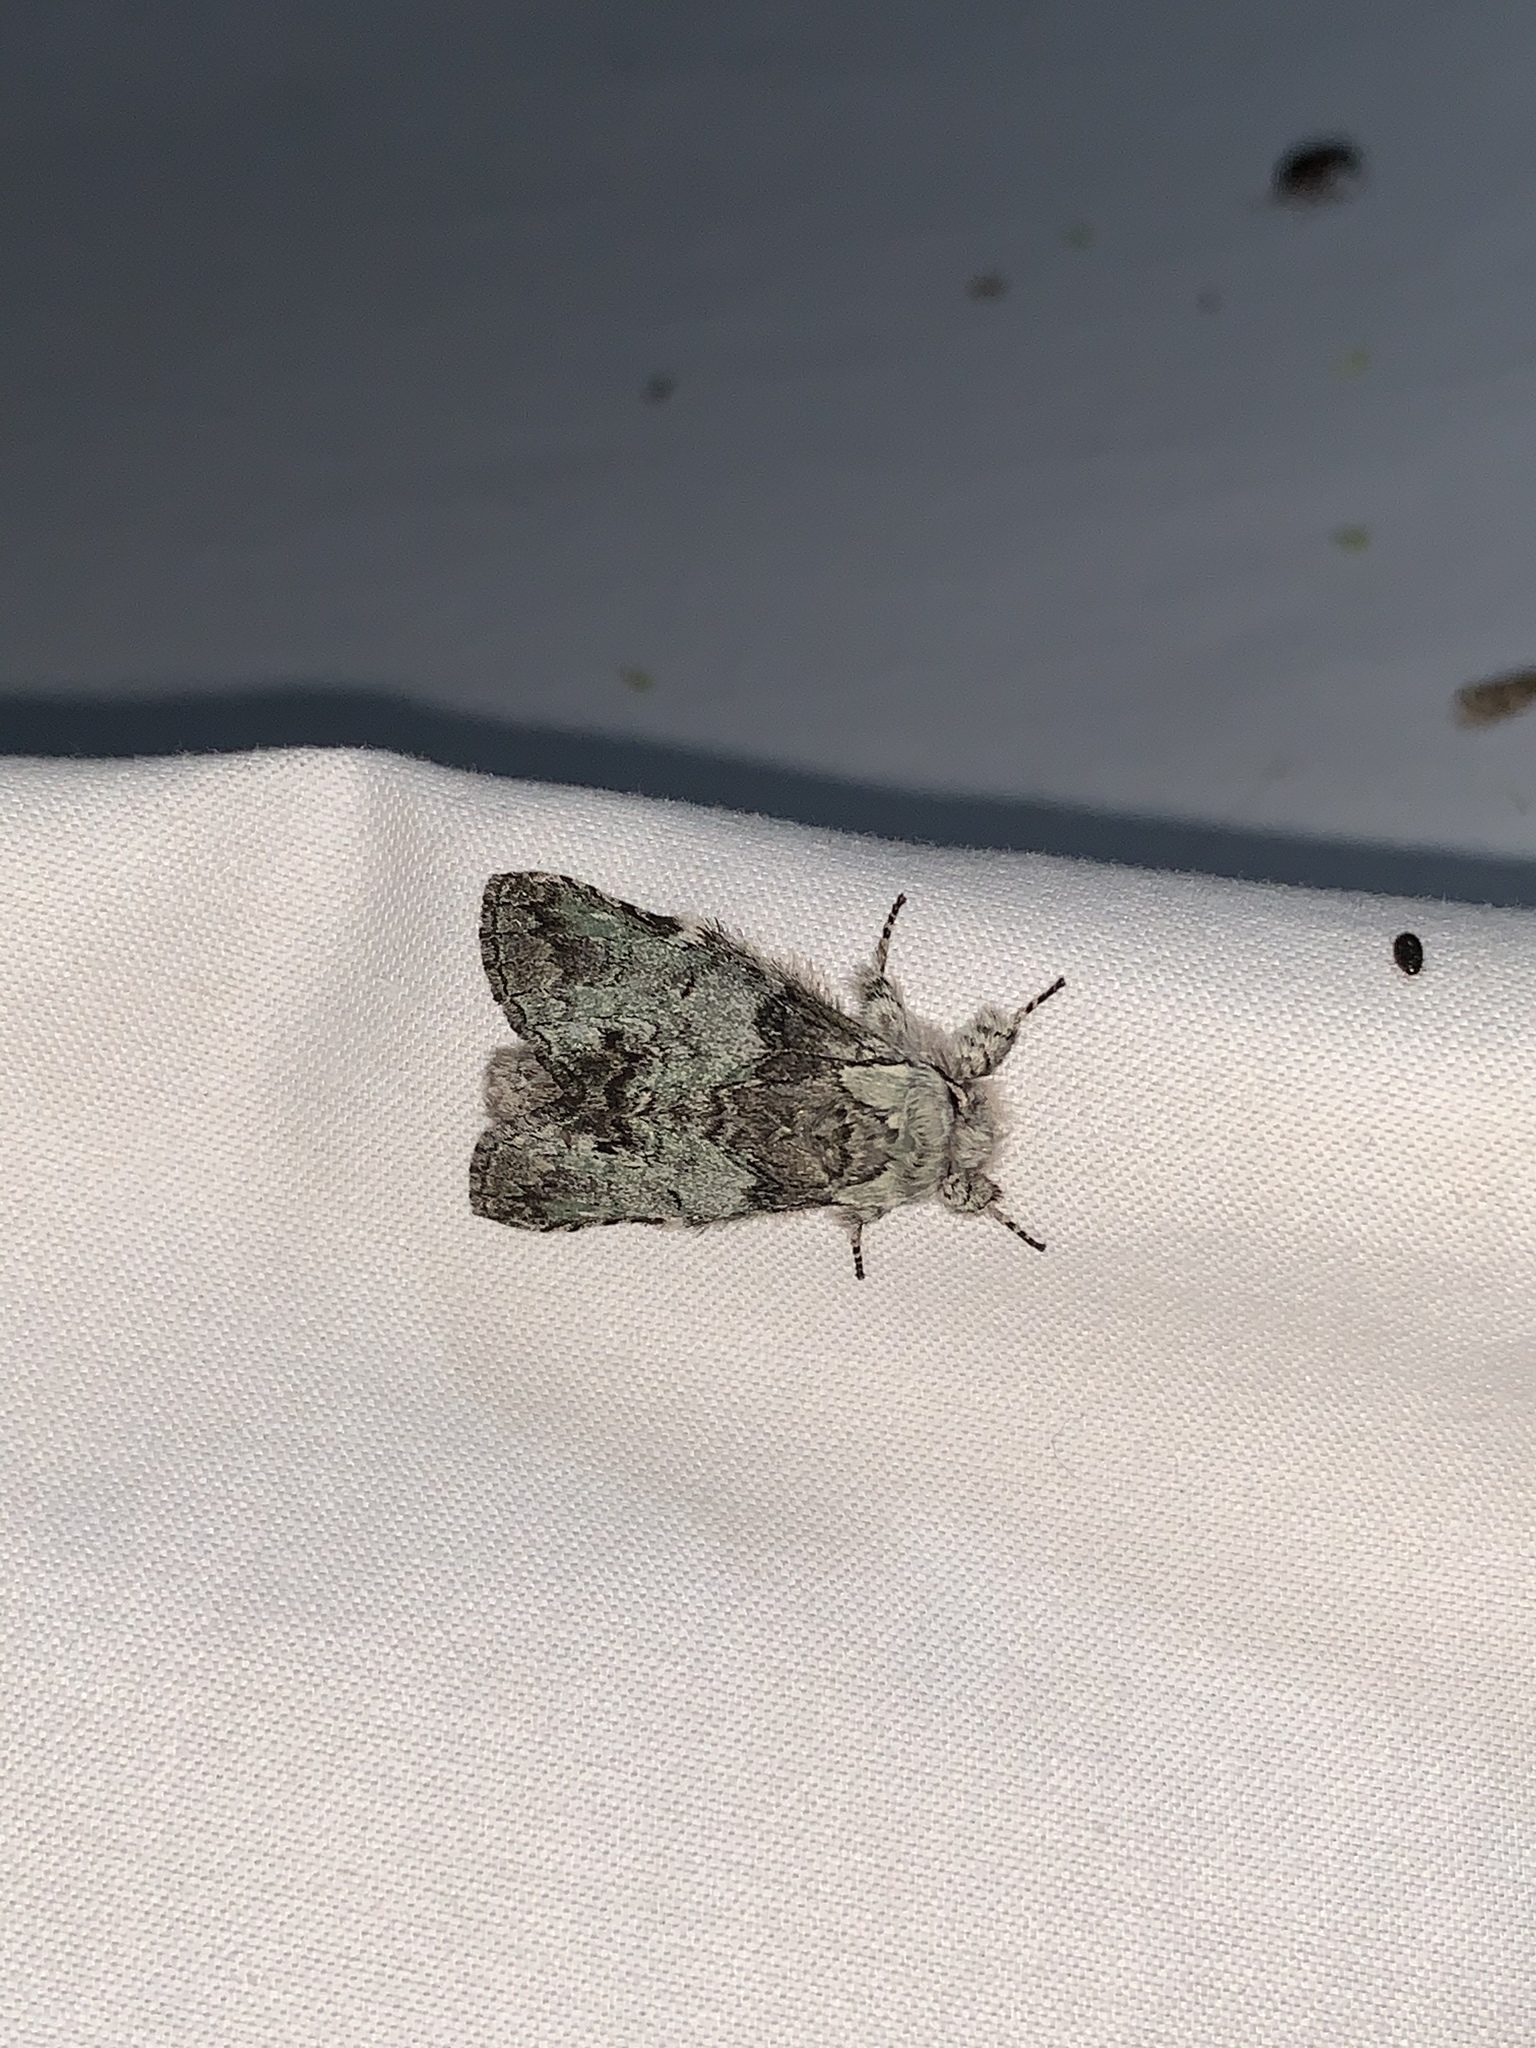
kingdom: Animalia
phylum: Arthropoda
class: Insecta
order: Lepidoptera
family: Notodontidae
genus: Macrurocampa
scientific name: Macrurocampa marthesia
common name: Mottled prominent
